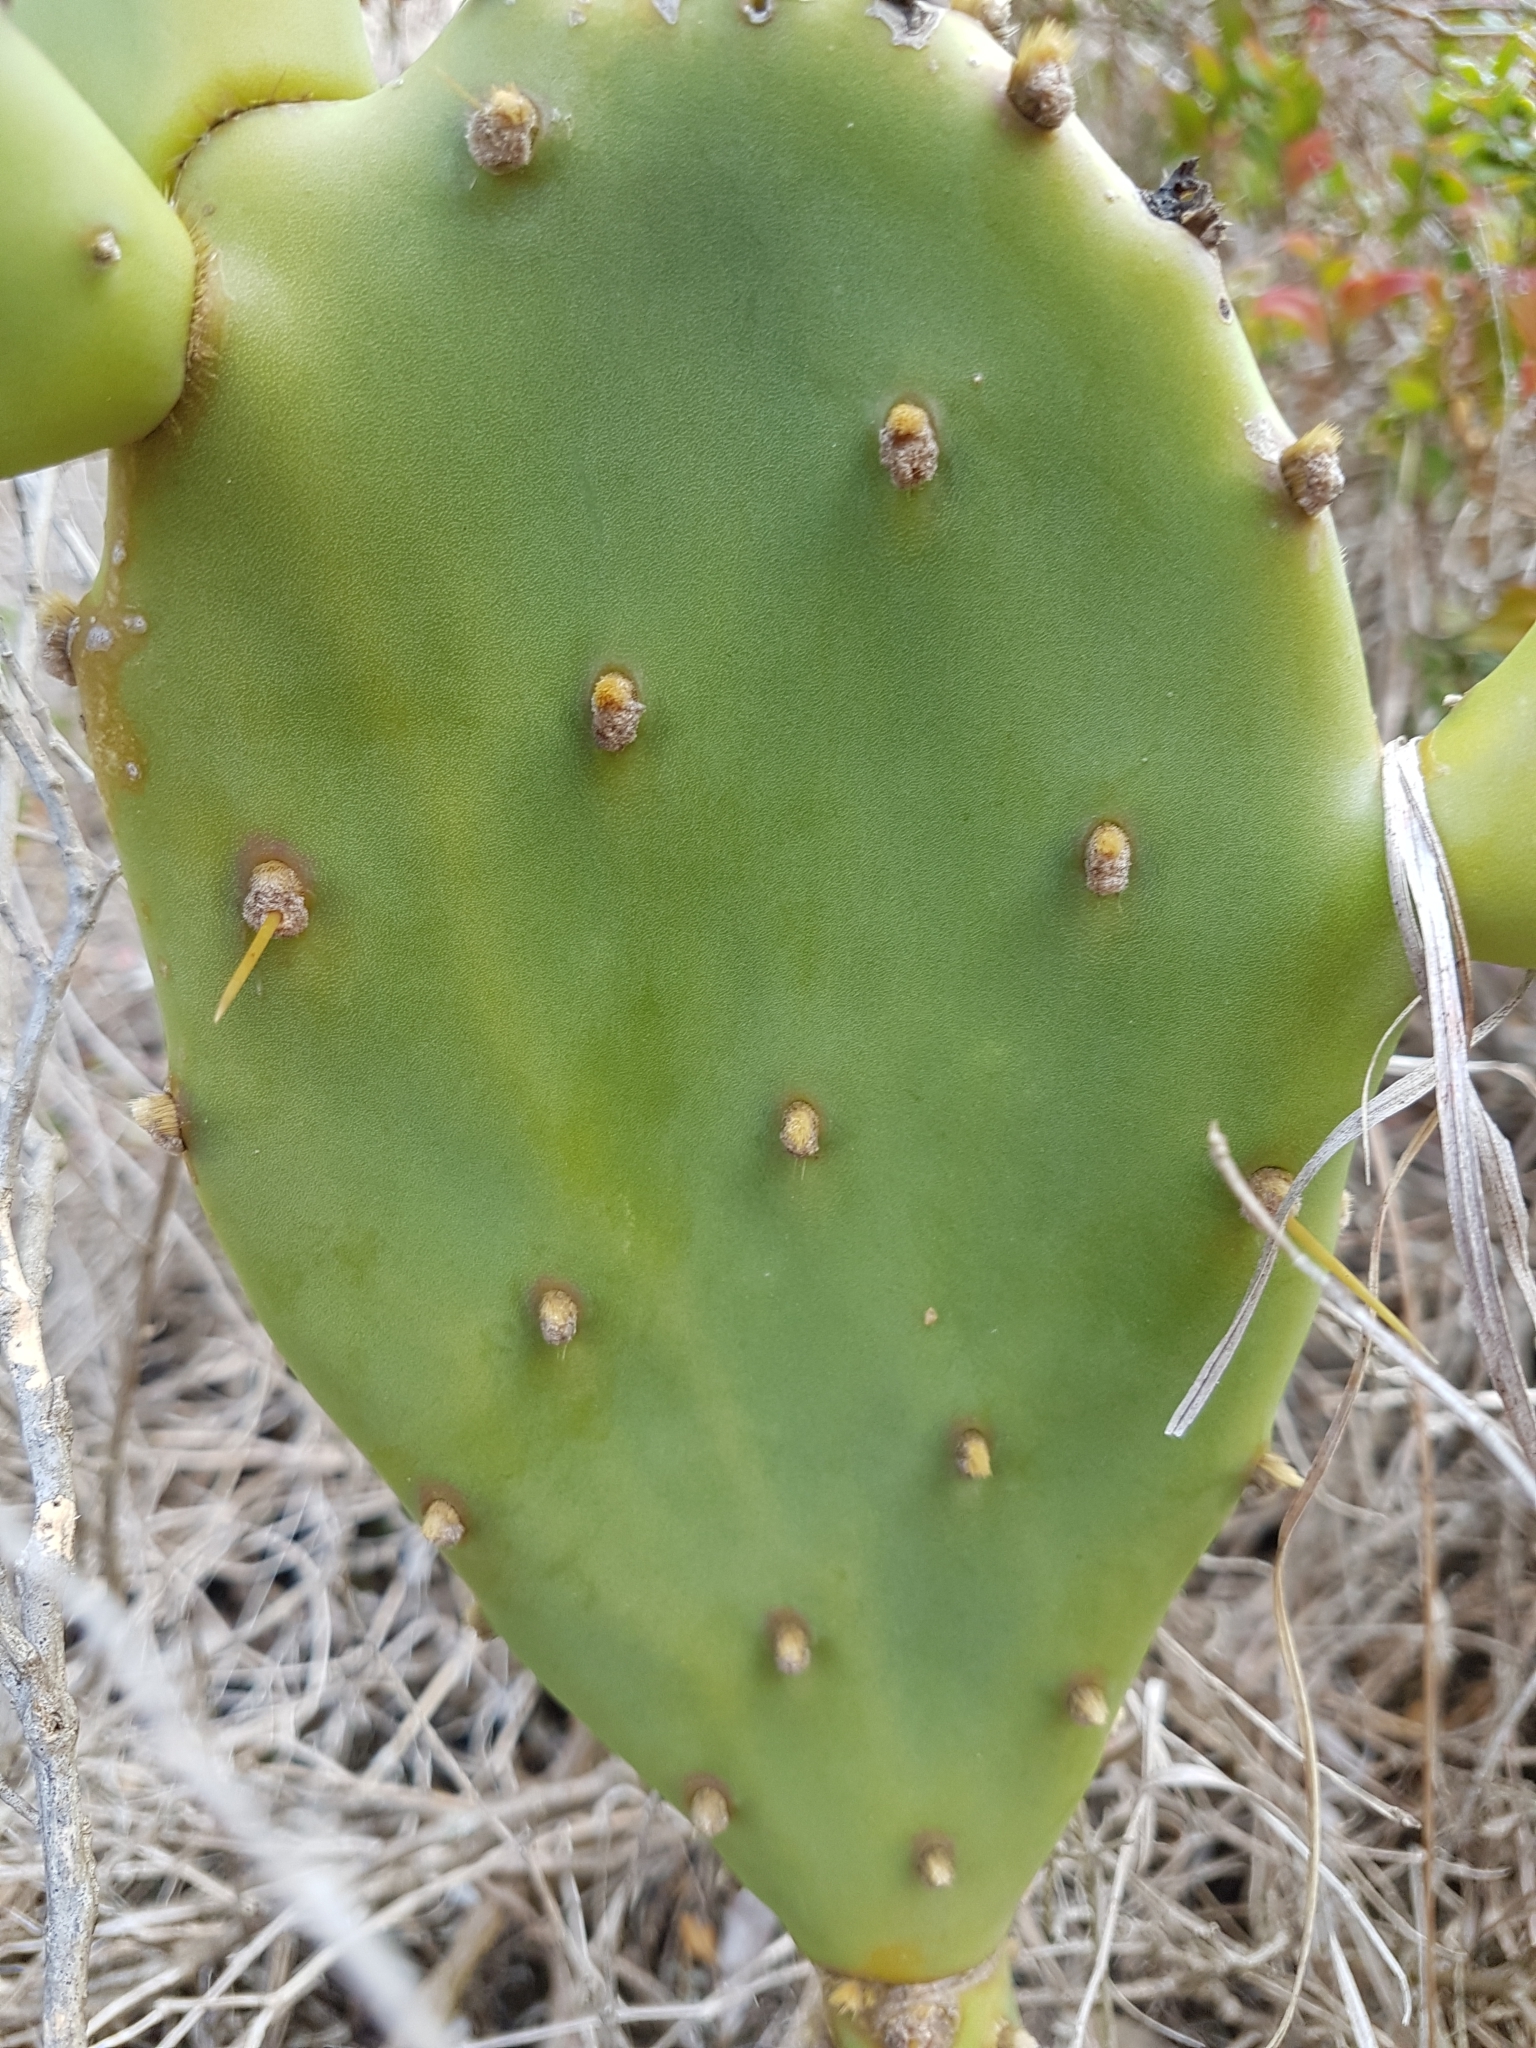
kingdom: Plantae
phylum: Tracheophyta
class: Magnoliopsida
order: Caryophyllales
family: Cactaceae
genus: Opuntia
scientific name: Opuntia anahuacensis
